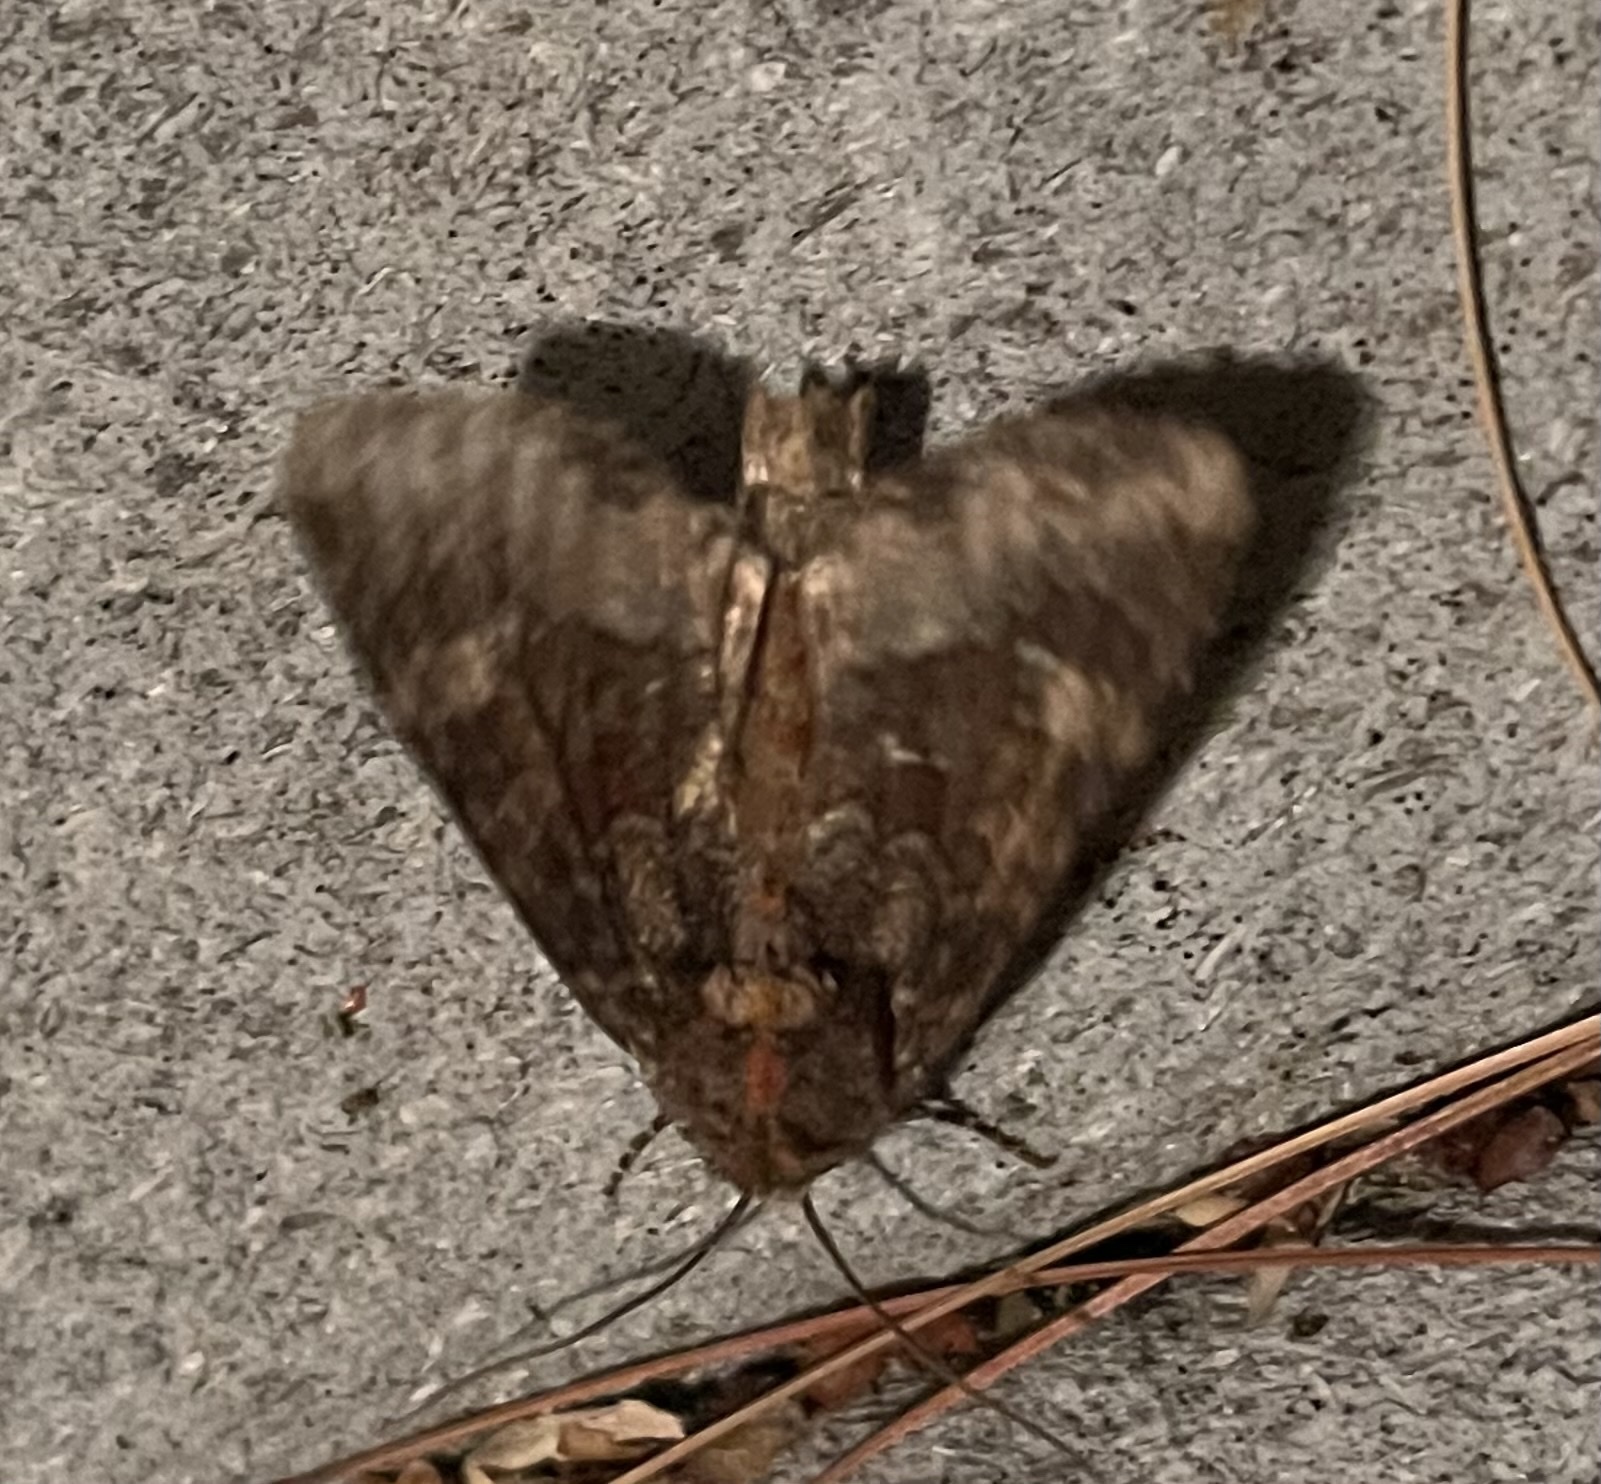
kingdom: Animalia
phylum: Arthropoda
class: Insecta
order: Lepidoptera
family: Noctuidae
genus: Loscopia
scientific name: Loscopia velata
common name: Veiled ear moth
